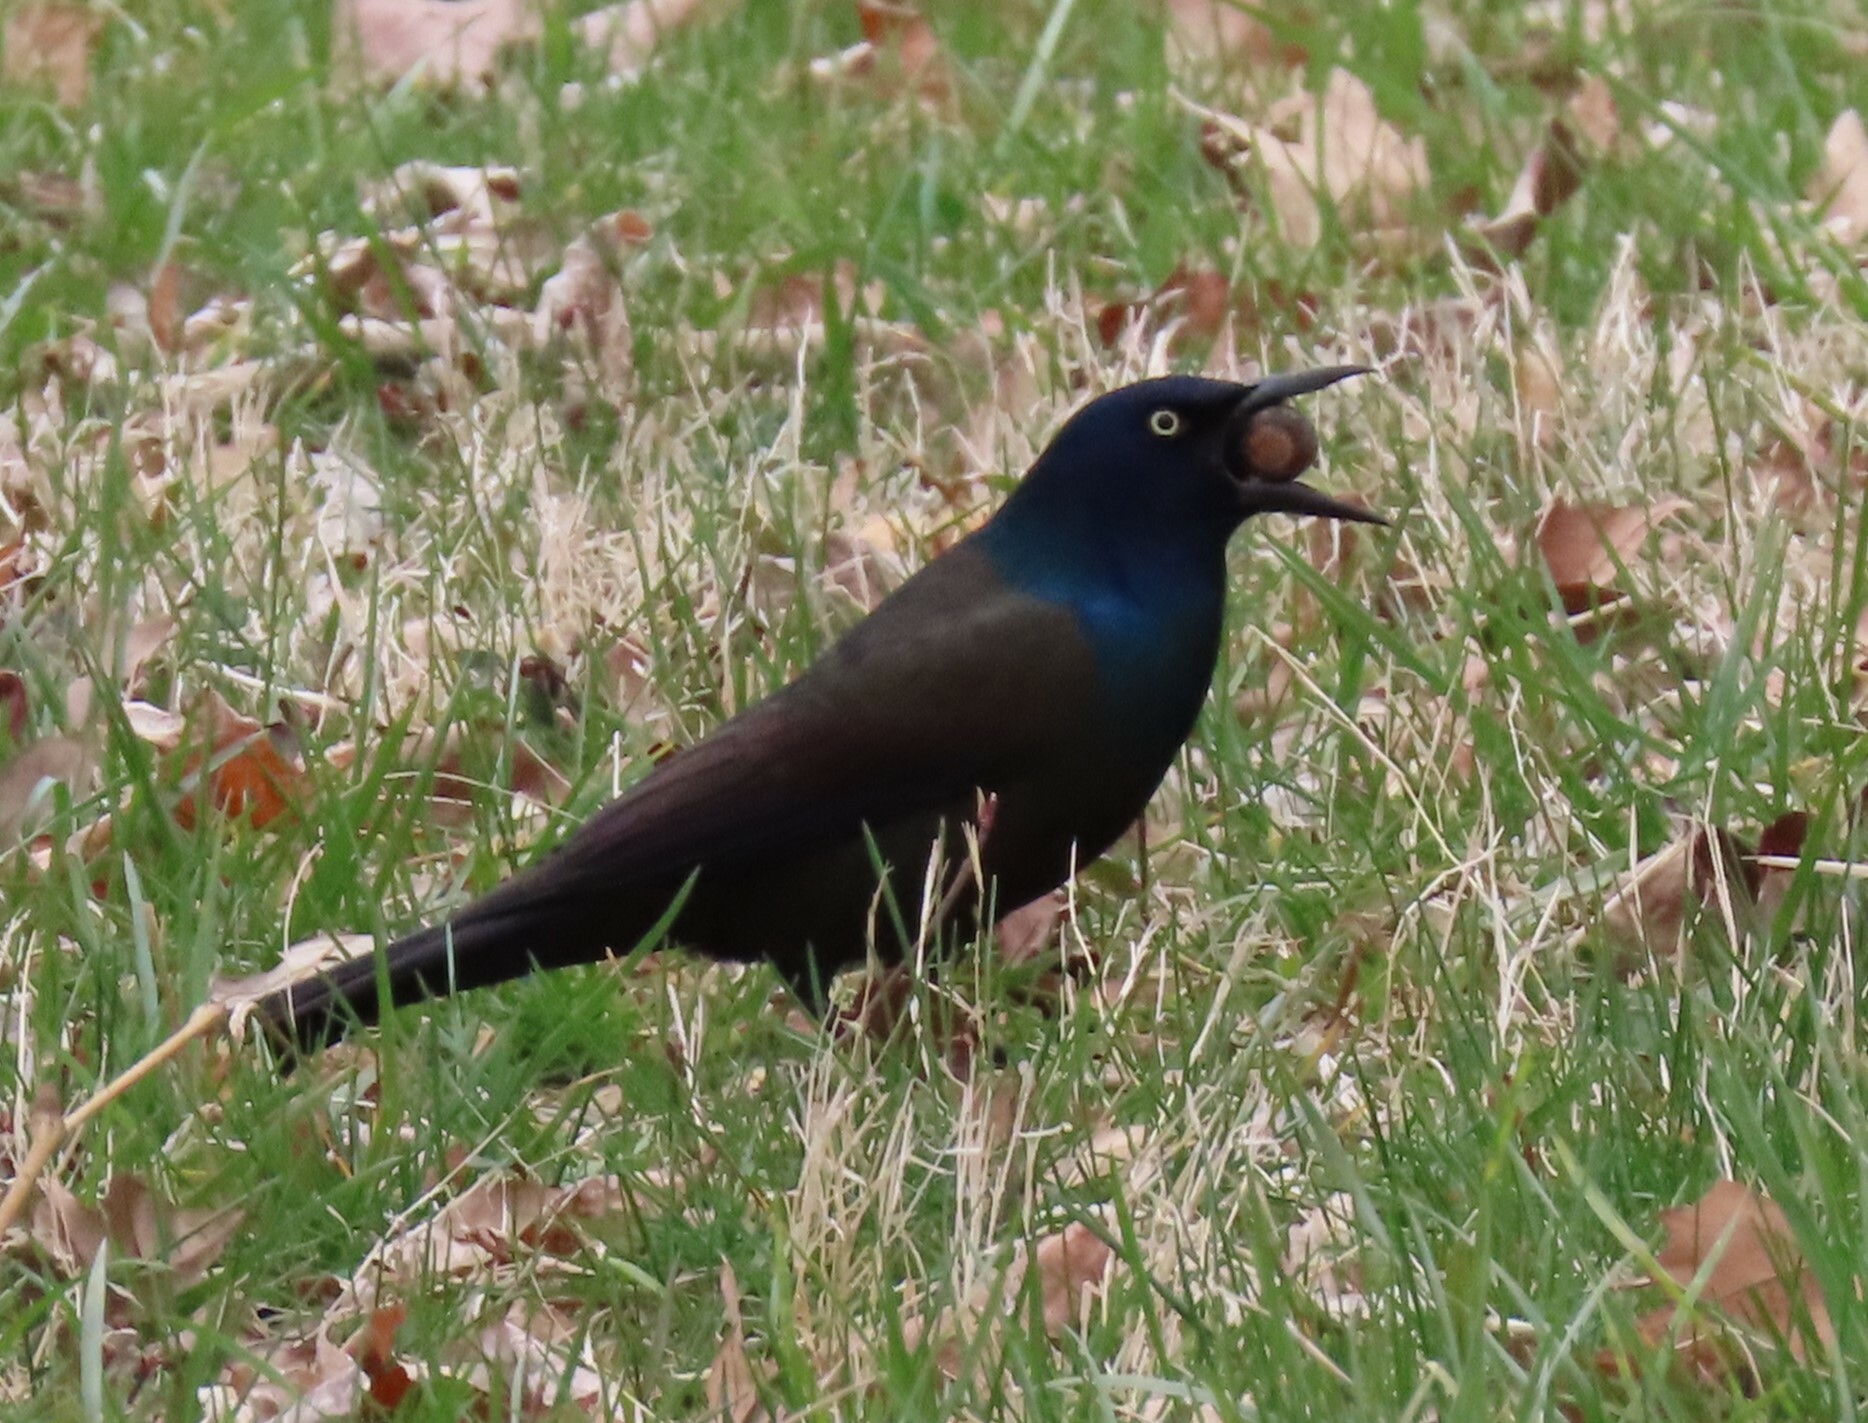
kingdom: Animalia
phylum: Chordata
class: Aves
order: Passeriformes
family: Icteridae
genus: Quiscalus
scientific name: Quiscalus quiscula
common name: Common grackle
